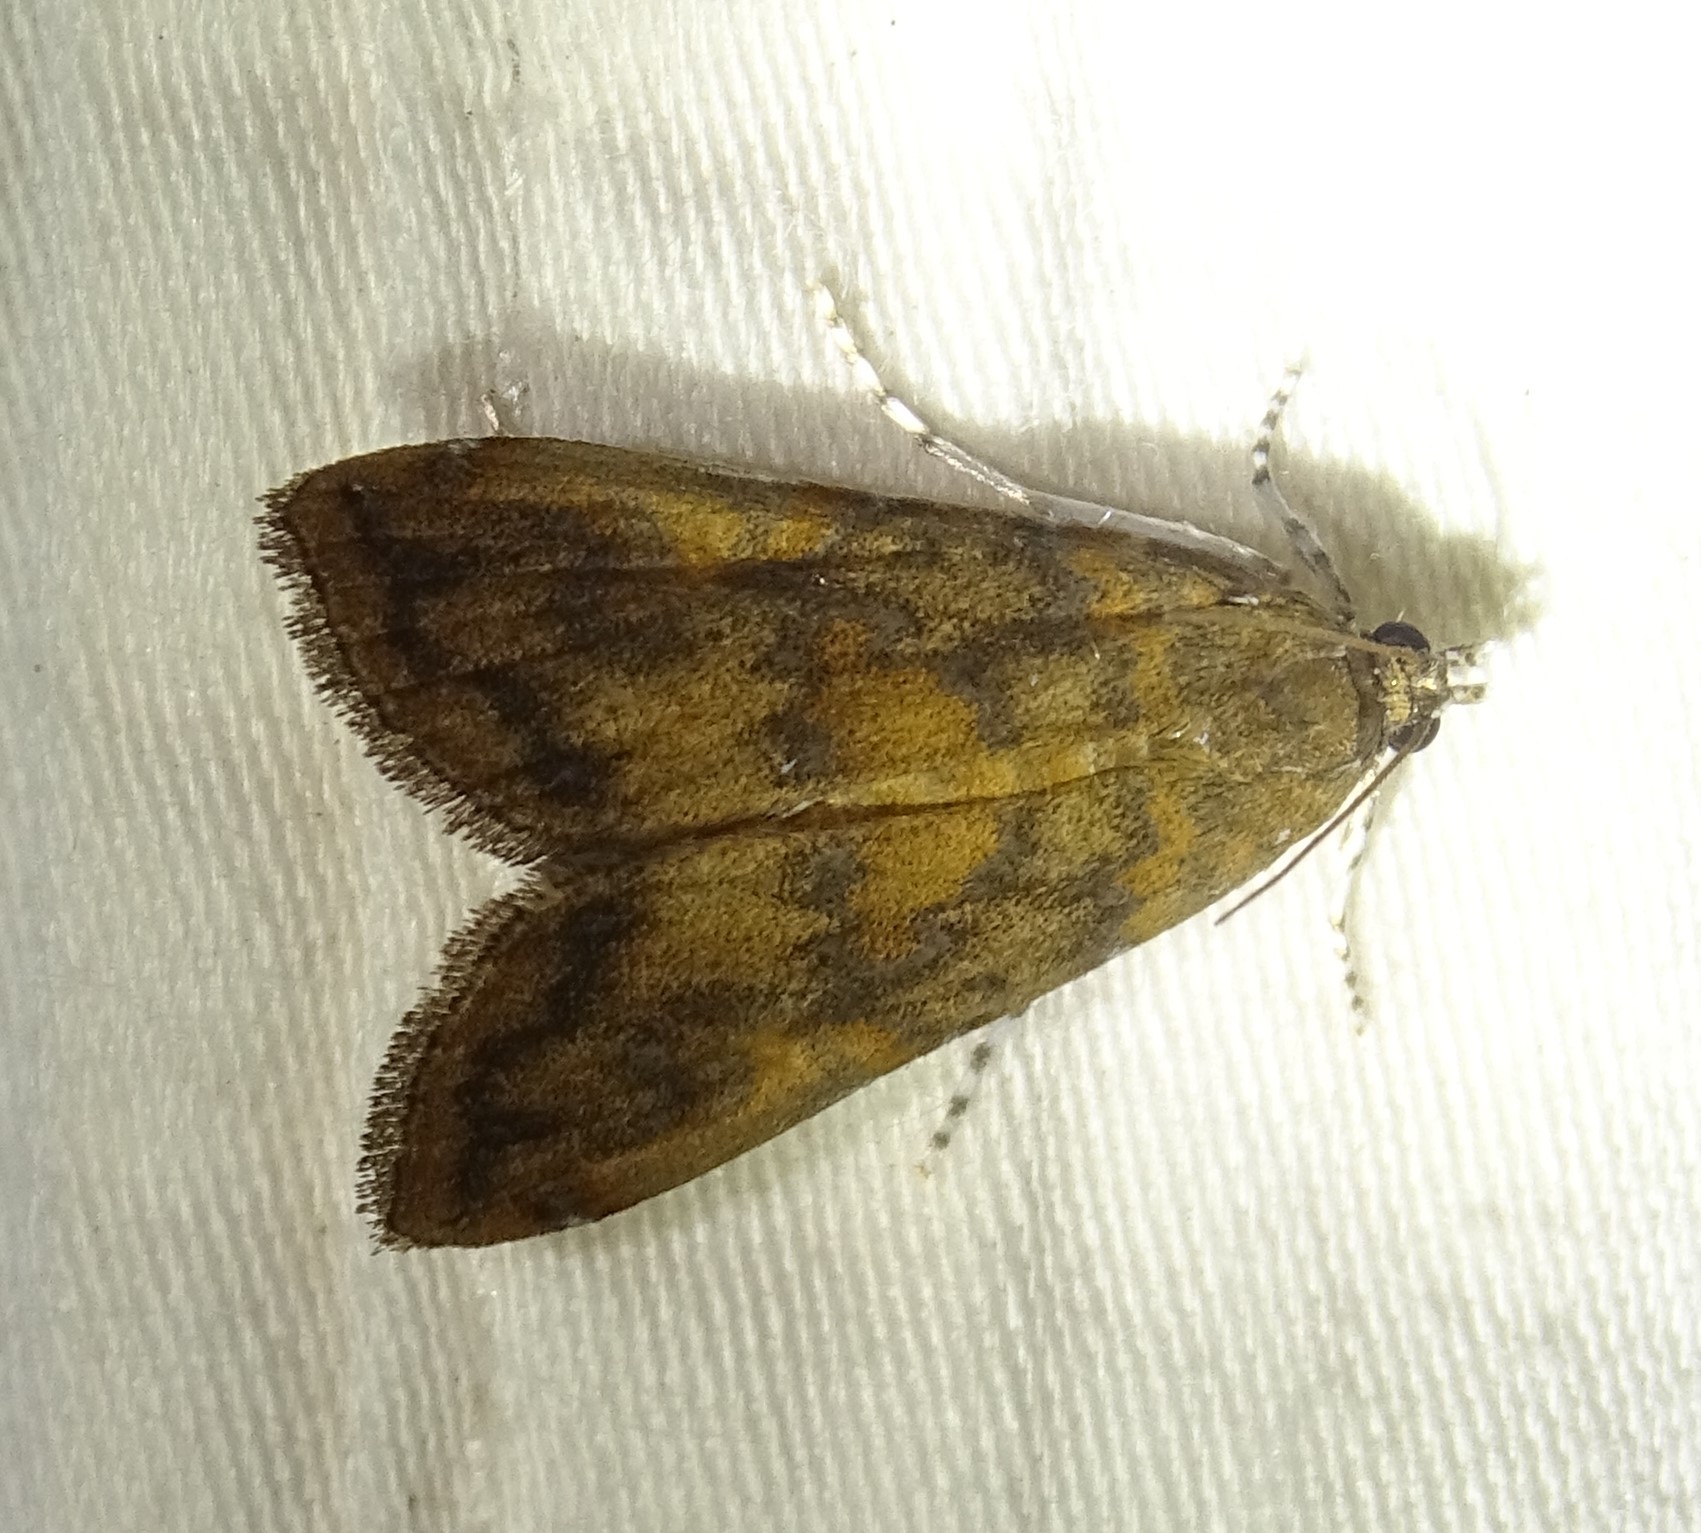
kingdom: Animalia
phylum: Arthropoda
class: Insecta
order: Lepidoptera
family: Crambidae
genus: Elophila
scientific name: Elophila gyralis
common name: Waterlily borer moth
